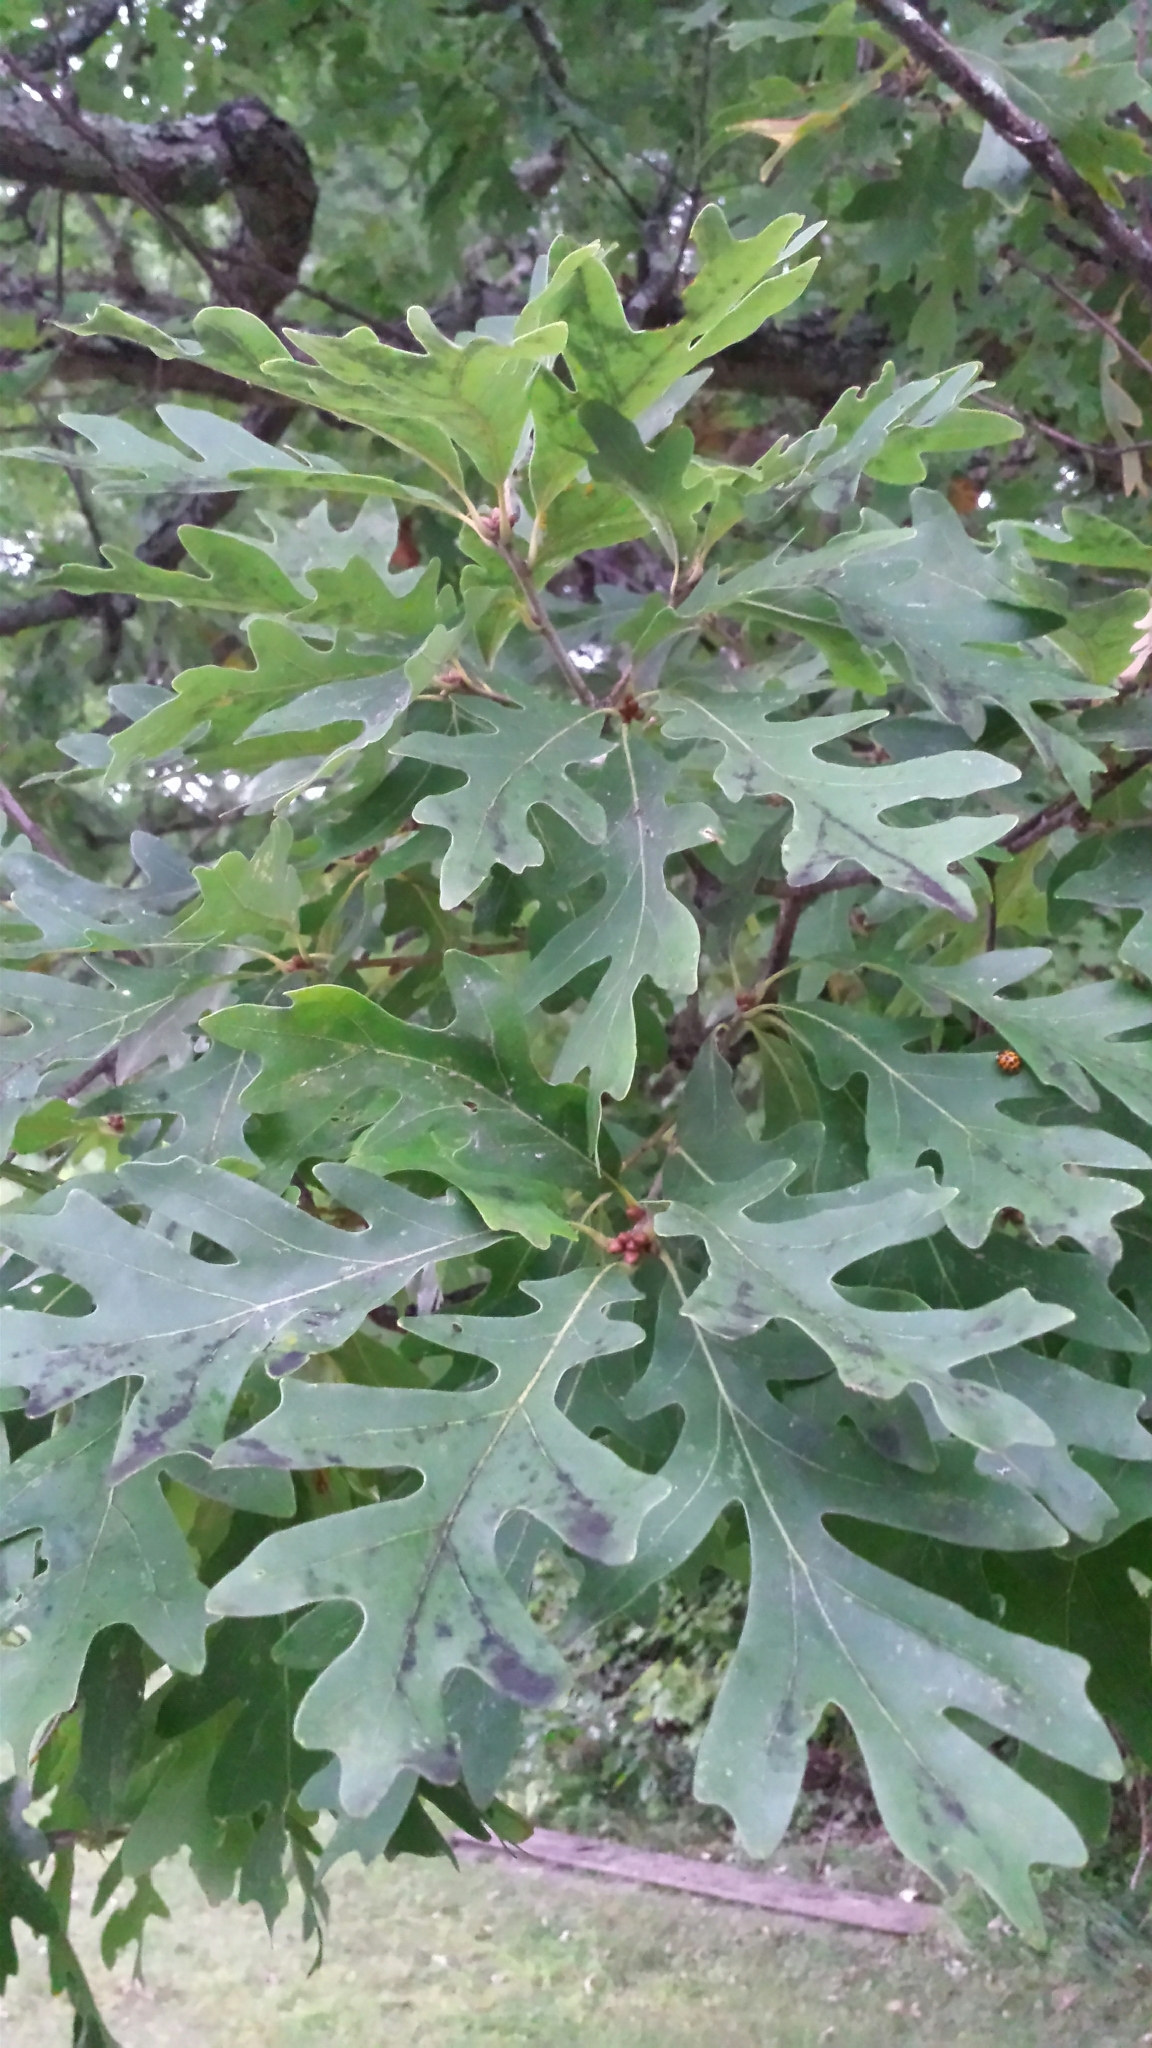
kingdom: Plantae
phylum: Tracheophyta
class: Magnoliopsida
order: Fagales
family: Fagaceae
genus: Quercus
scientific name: Quercus alba
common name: White oak
